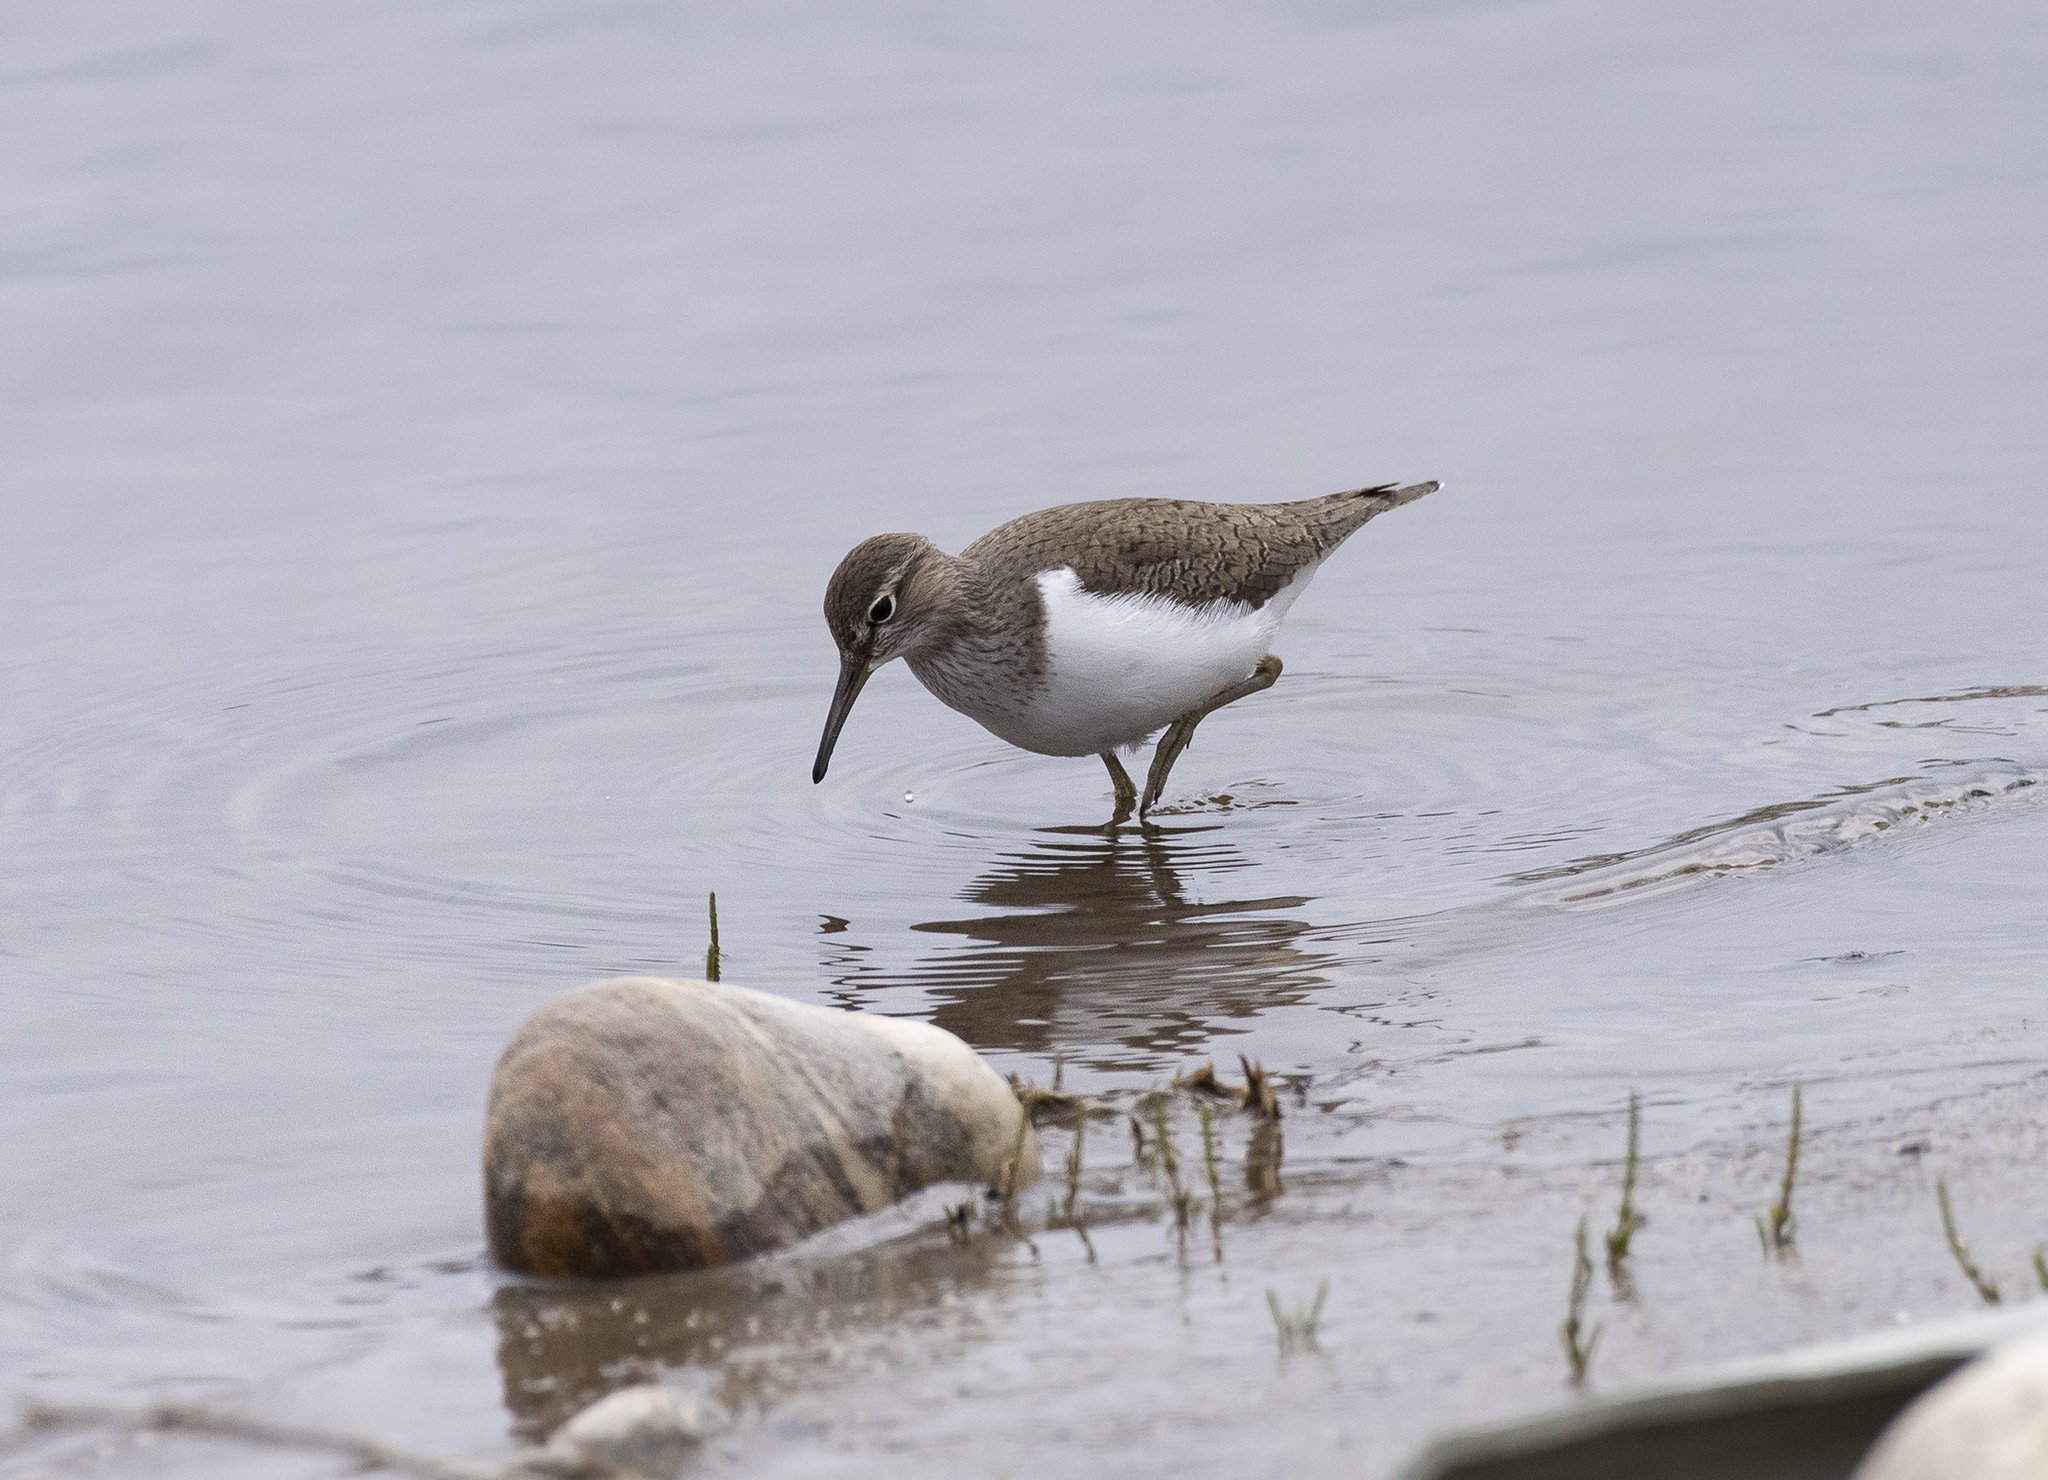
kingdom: Animalia
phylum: Chordata
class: Aves
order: Charadriiformes
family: Scolopacidae
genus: Actitis
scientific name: Actitis hypoleucos
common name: Common sandpiper
